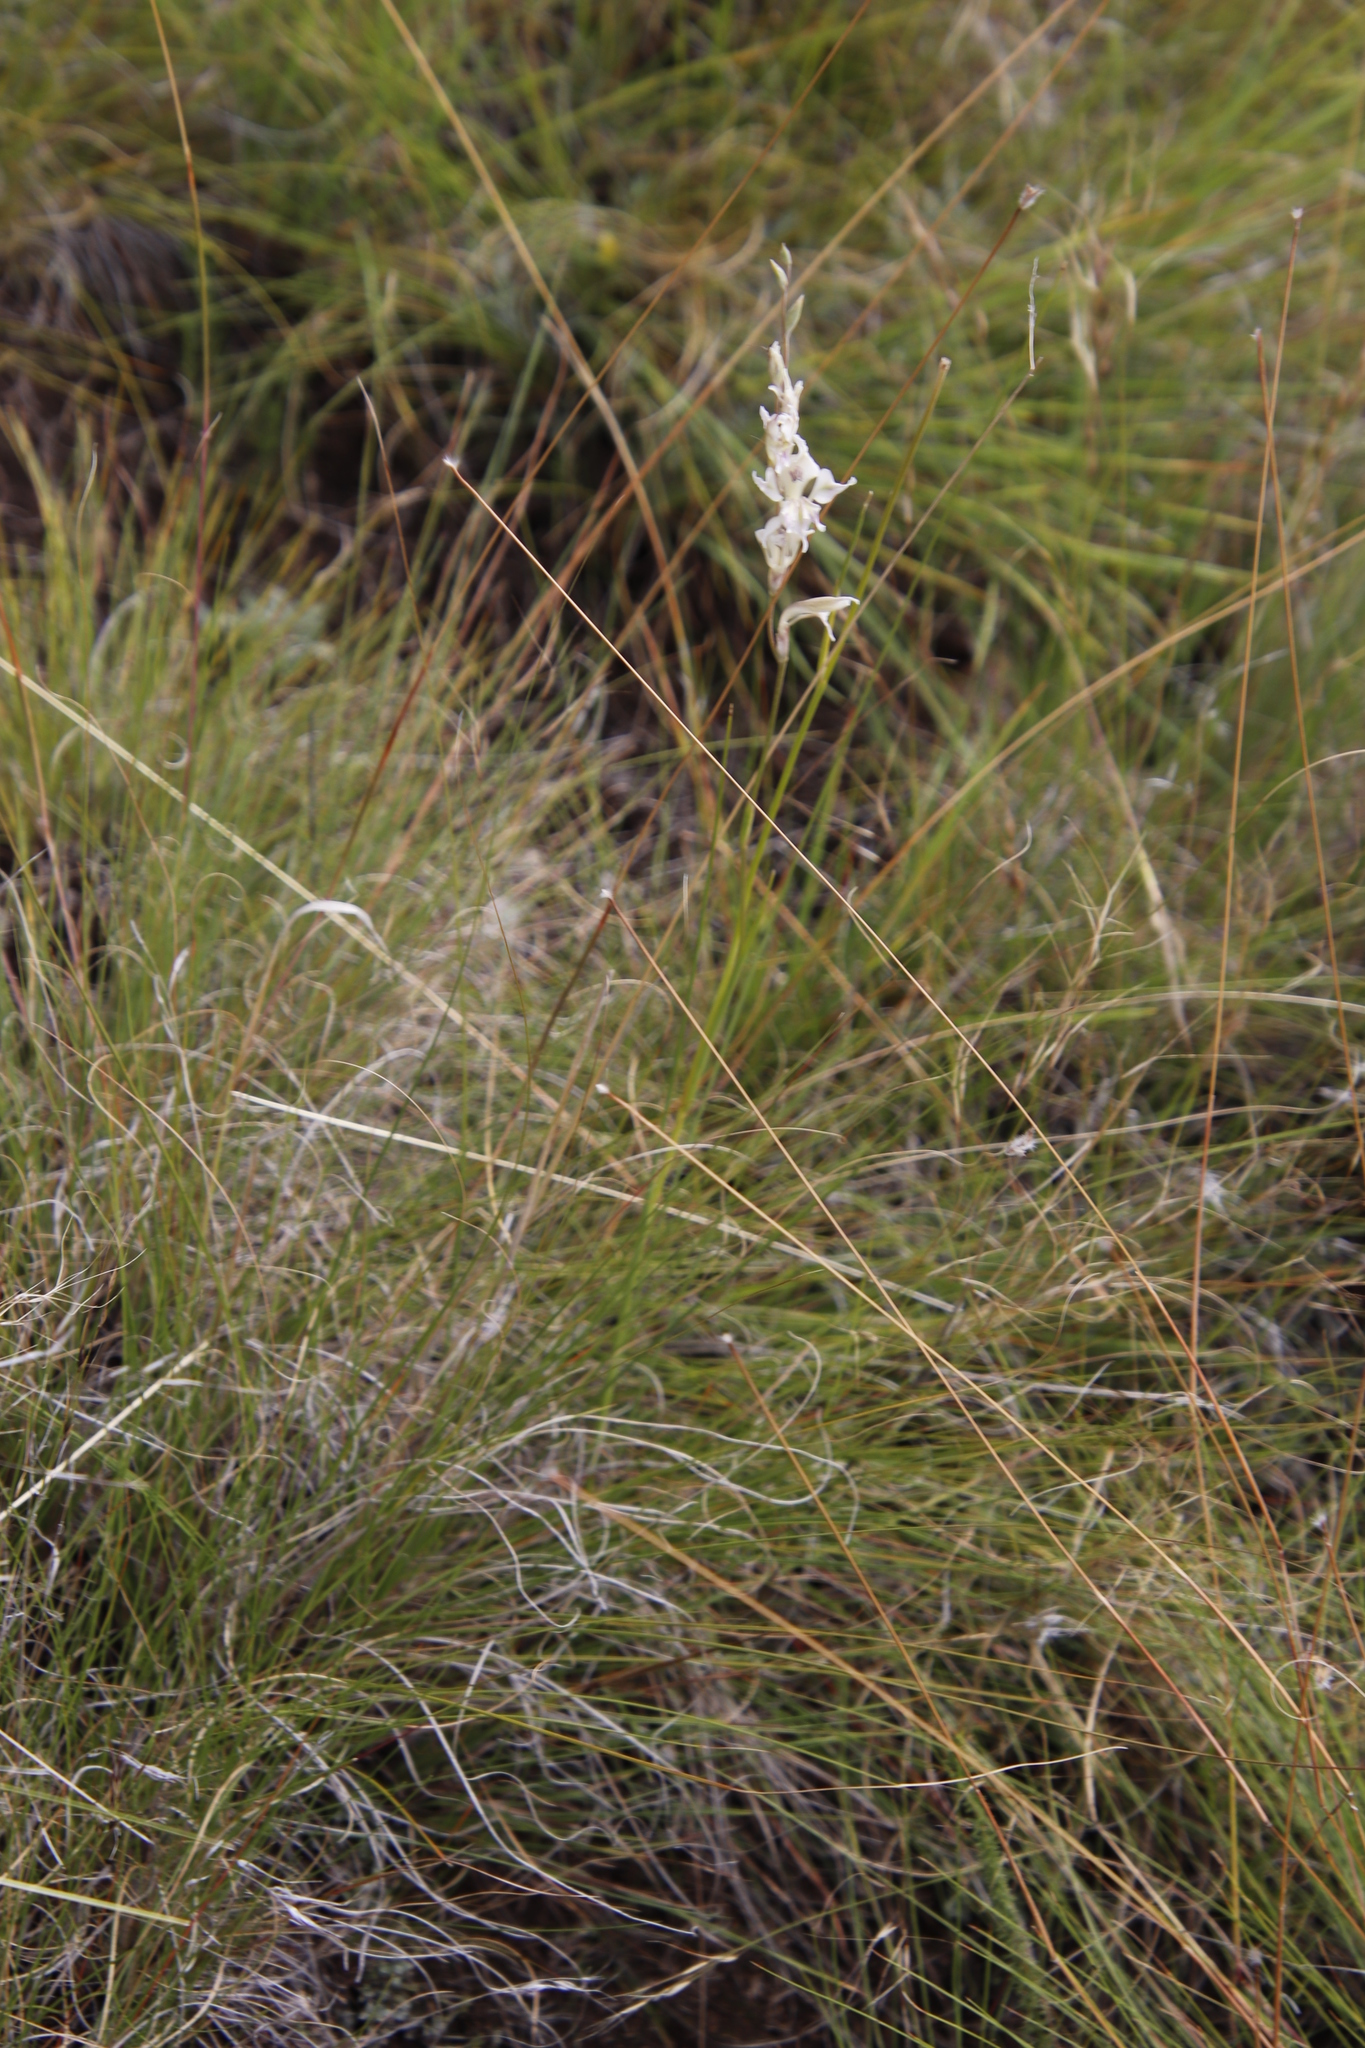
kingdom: Plantae
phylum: Tracheophyta
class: Liliopsida
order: Asparagales
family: Iridaceae
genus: Gladiolus
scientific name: Gladiolus permeabilis
